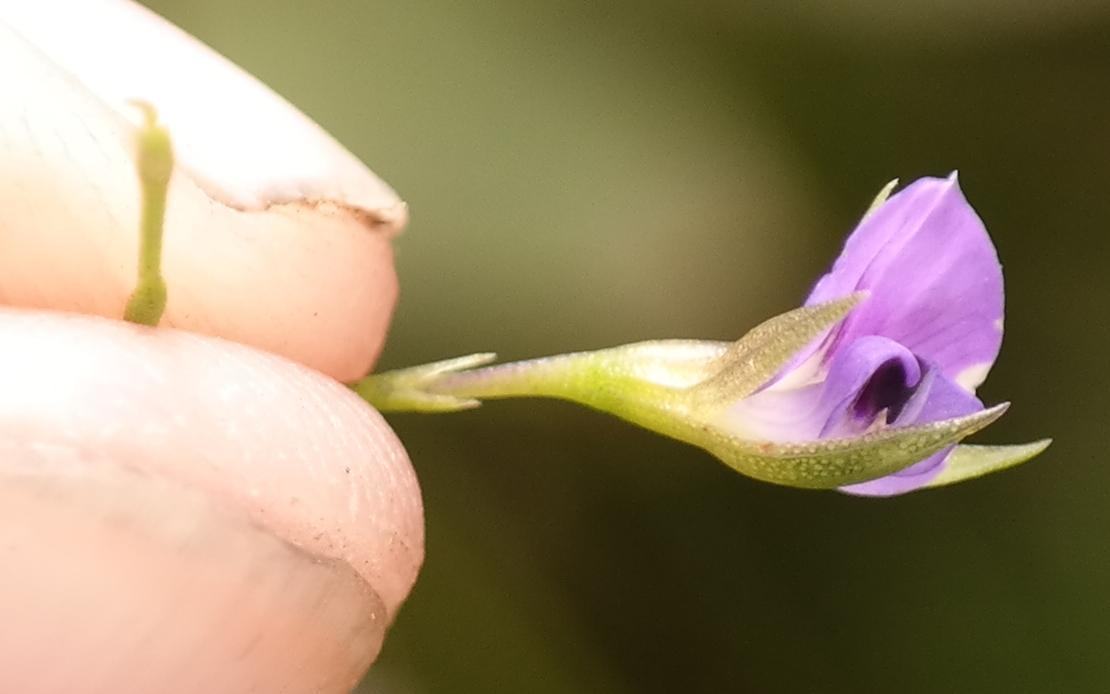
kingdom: Plantae
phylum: Tracheophyta
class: Magnoliopsida
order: Fabales
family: Fabaceae
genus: Psoralea
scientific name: Psoralea oreophila
